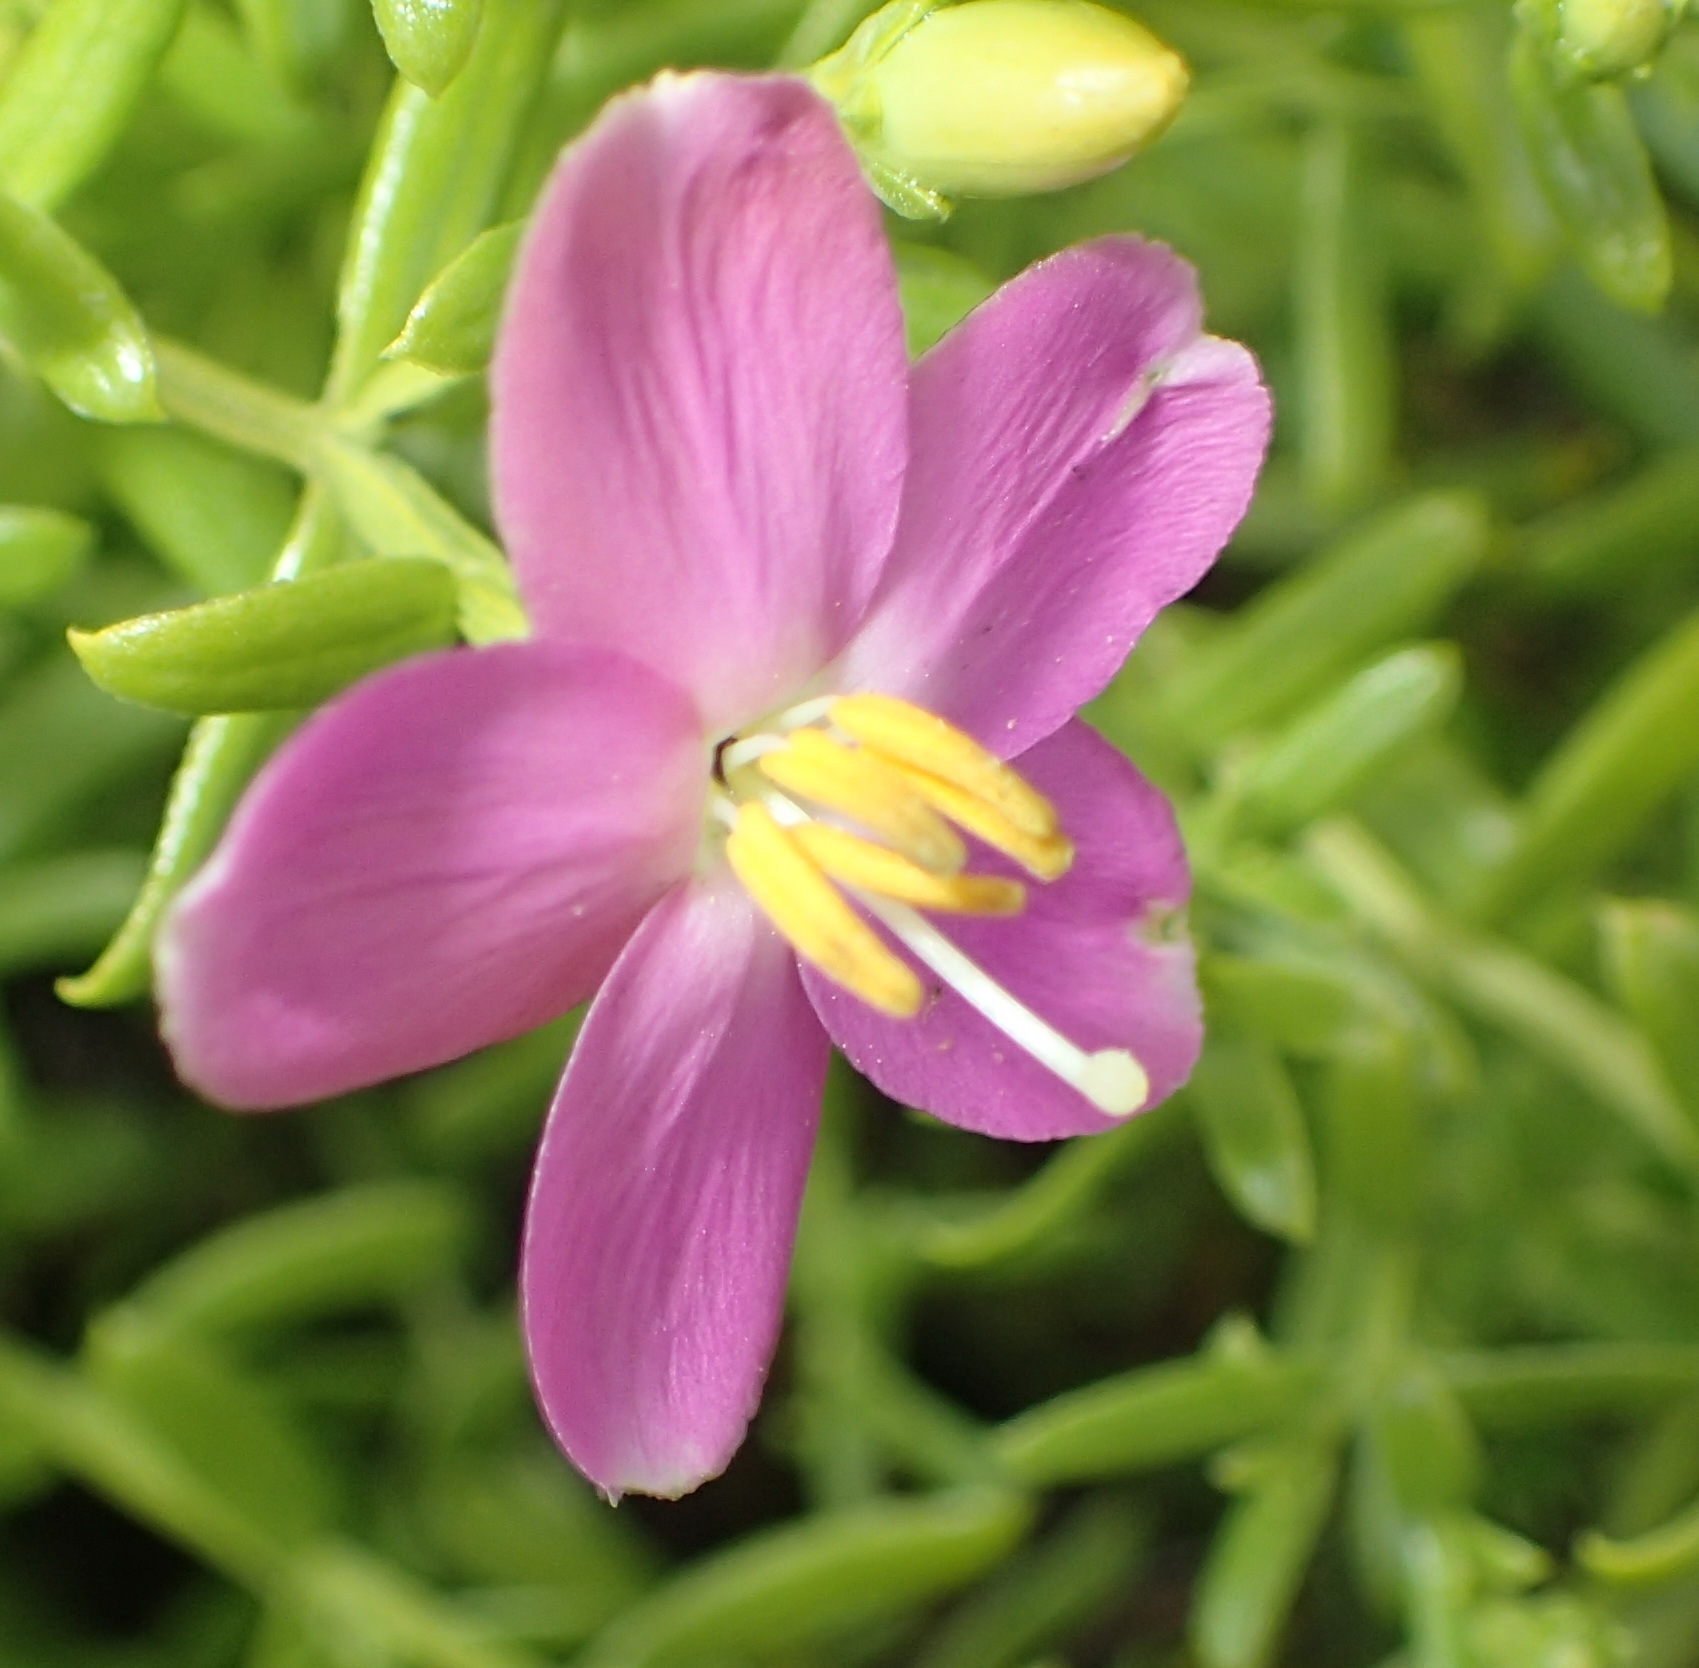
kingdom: Plantae
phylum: Tracheophyta
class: Magnoliopsida
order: Gentianales
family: Gentianaceae
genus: Chironia
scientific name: Chironia baccifera
